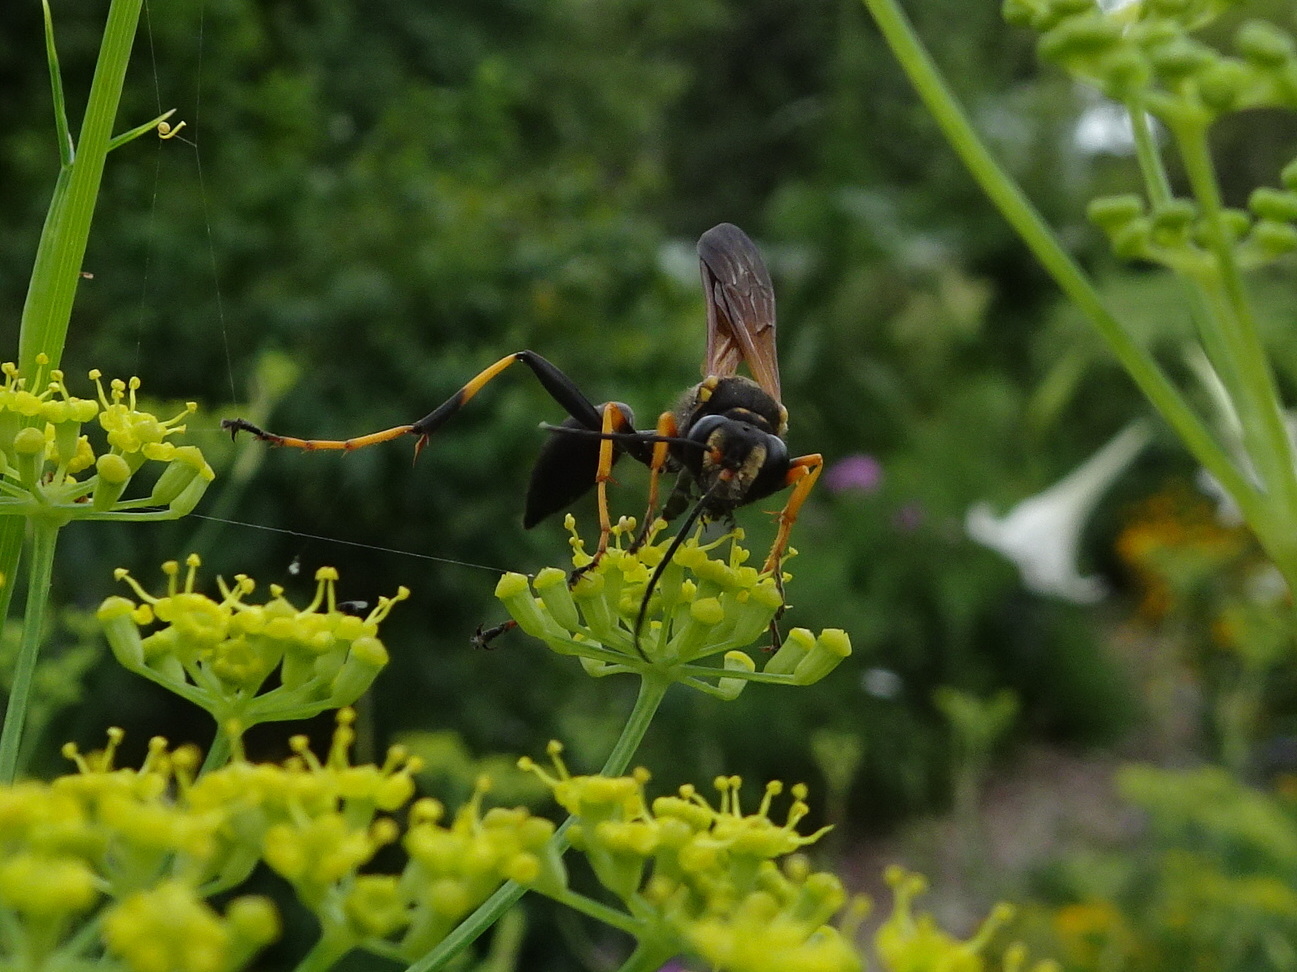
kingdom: Animalia
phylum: Arthropoda
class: Insecta
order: Hymenoptera
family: Sphecidae
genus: Sceliphron
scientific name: Sceliphron caementarium
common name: Mud dauber
